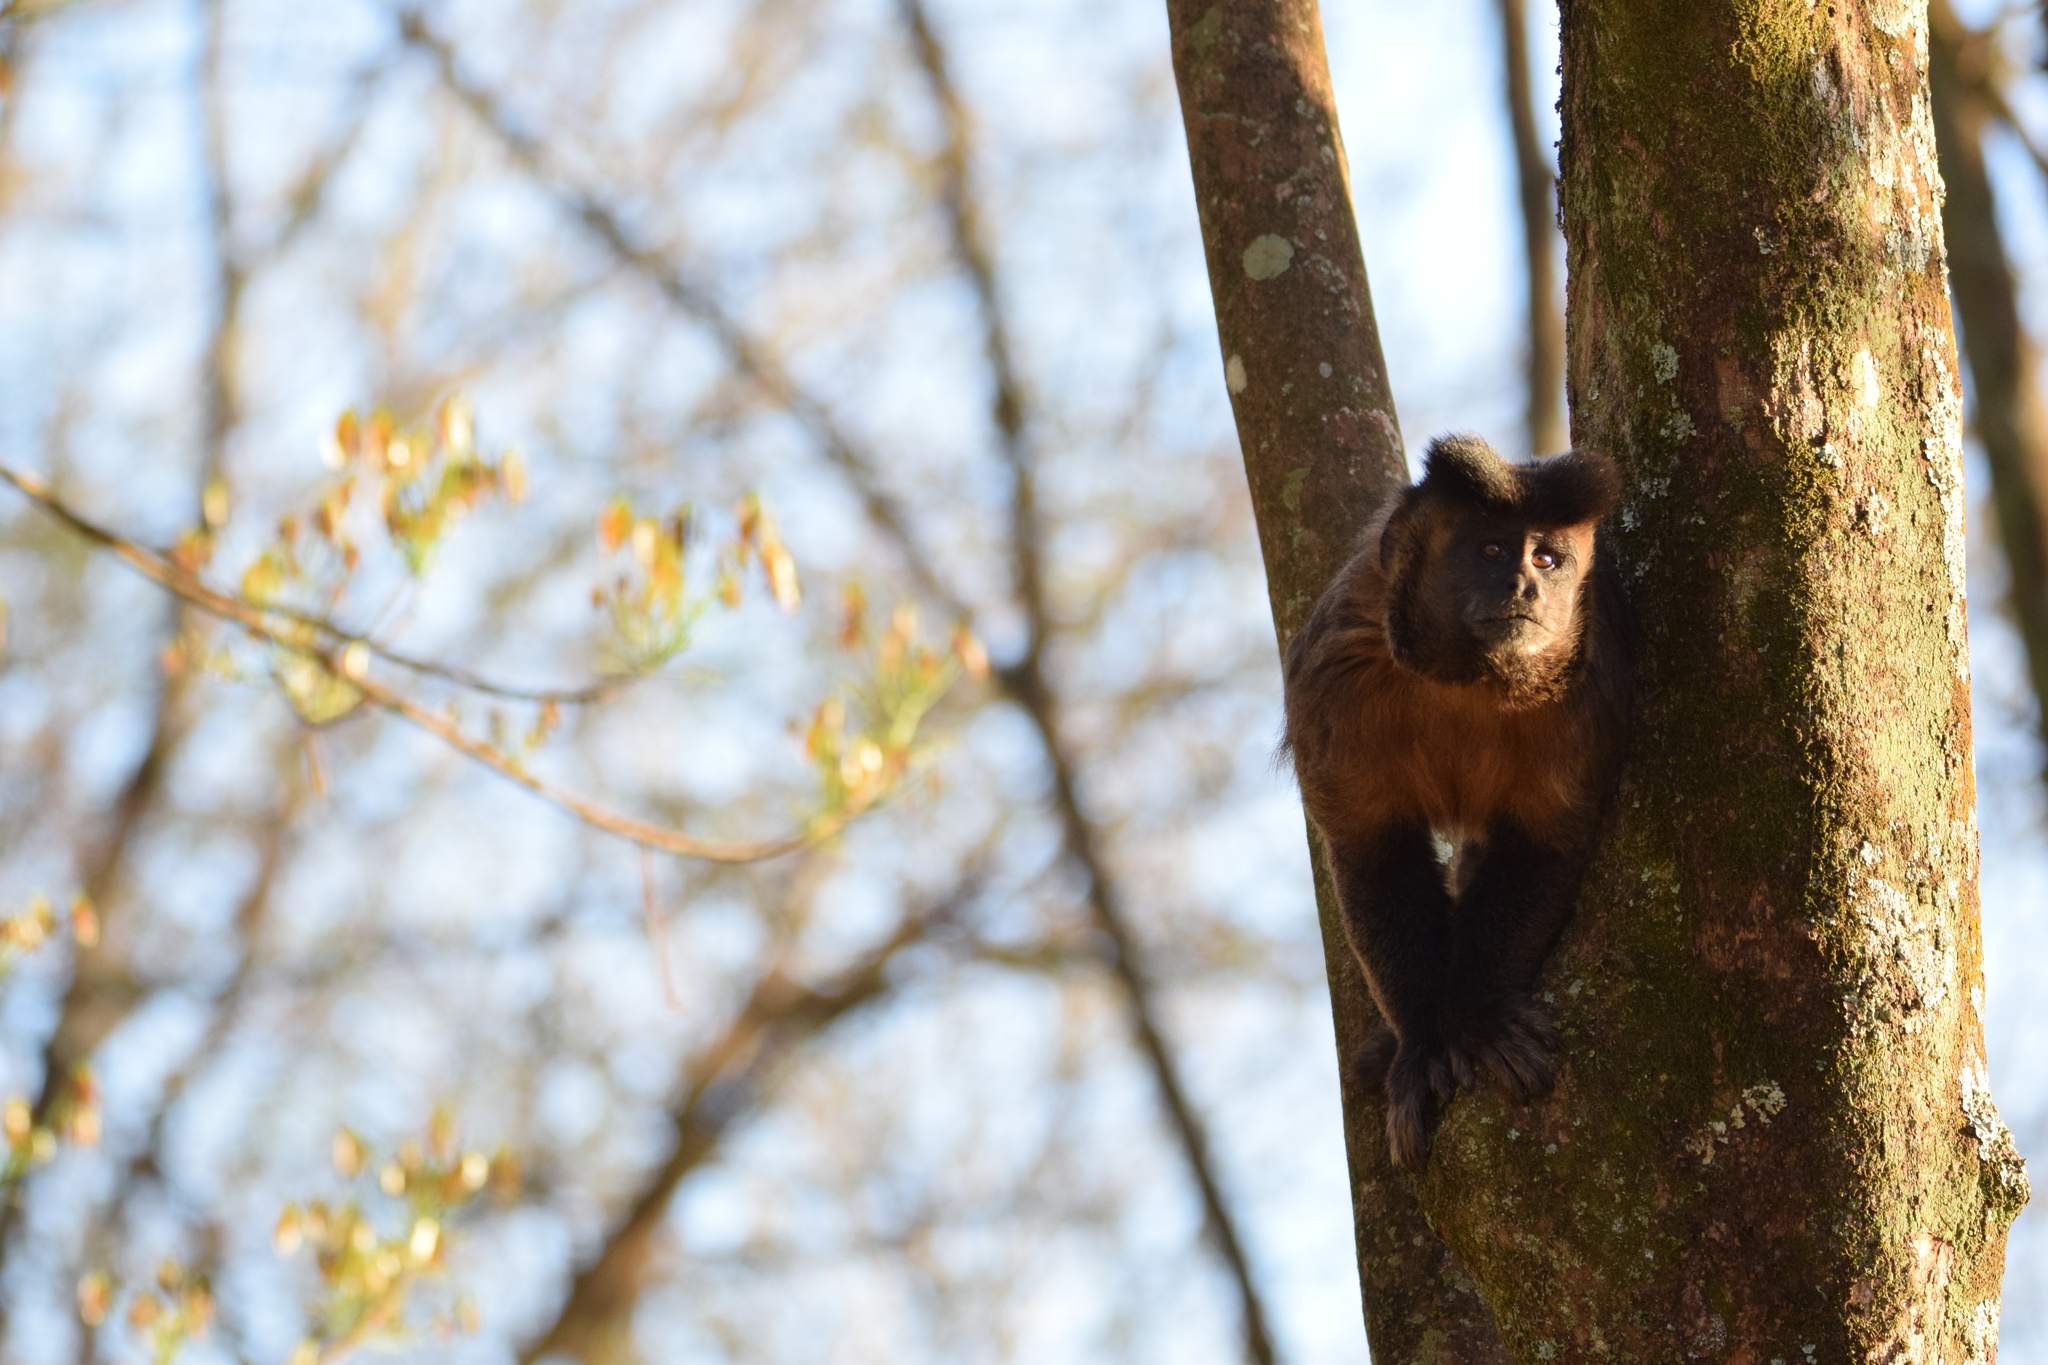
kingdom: Animalia
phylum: Chordata
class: Mammalia
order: Primates
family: Cebidae
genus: Sapajus
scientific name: Sapajus nigritus
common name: Black capuchin
